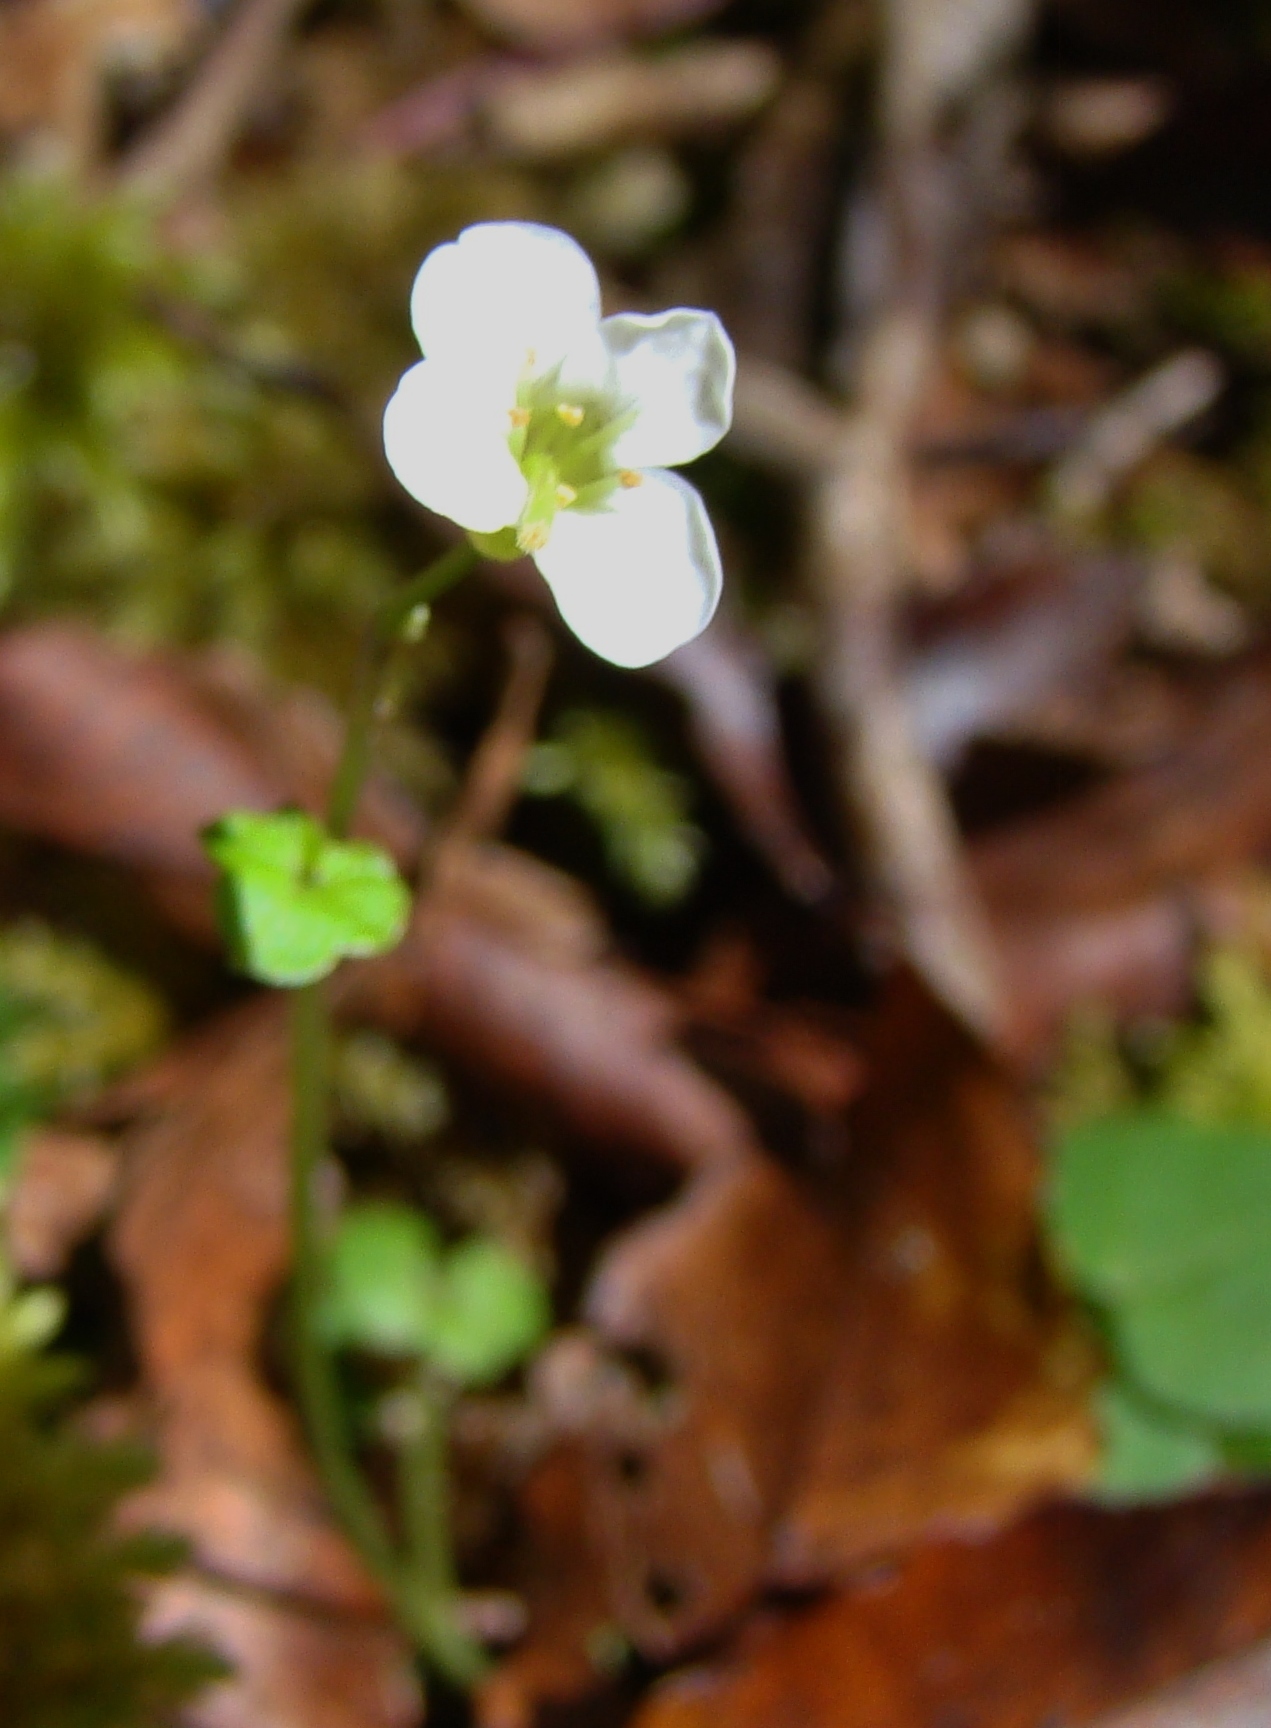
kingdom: Plantae
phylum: Tracheophyta
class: Magnoliopsida
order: Brassicales
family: Brassicaceae
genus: Cardamine
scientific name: Cardamine corymbosa
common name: New zealand bitter-cress
